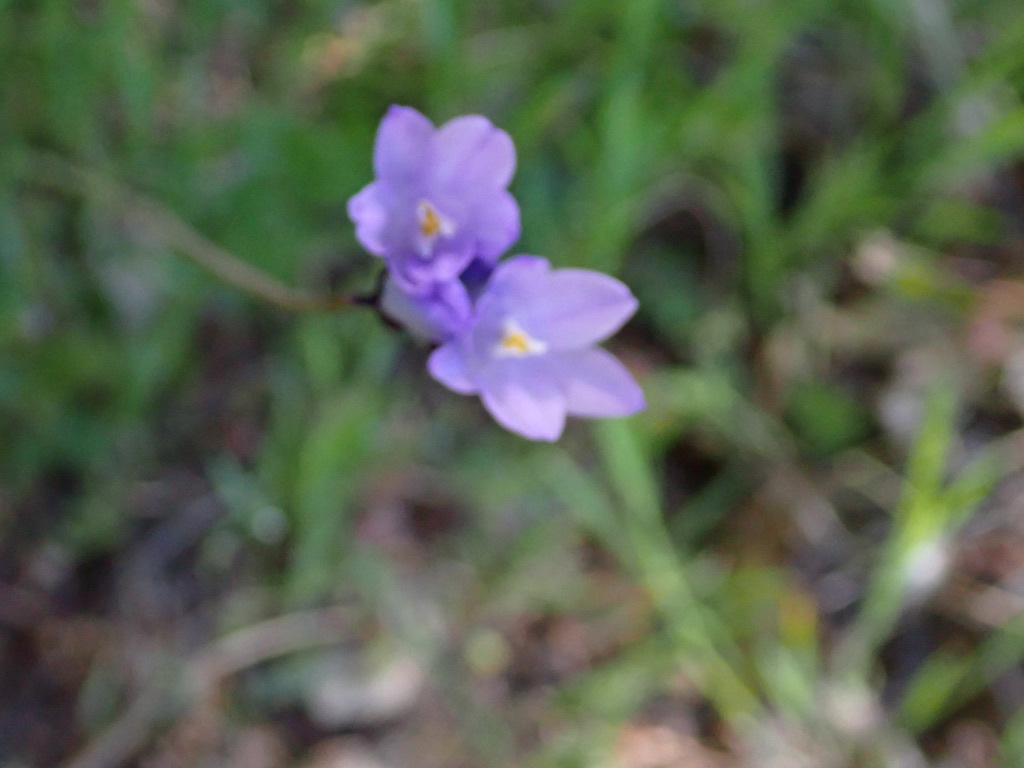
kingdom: Plantae
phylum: Tracheophyta
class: Liliopsida
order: Asparagales
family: Asparagaceae
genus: Dipterostemon
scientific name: Dipterostemon capitatus
